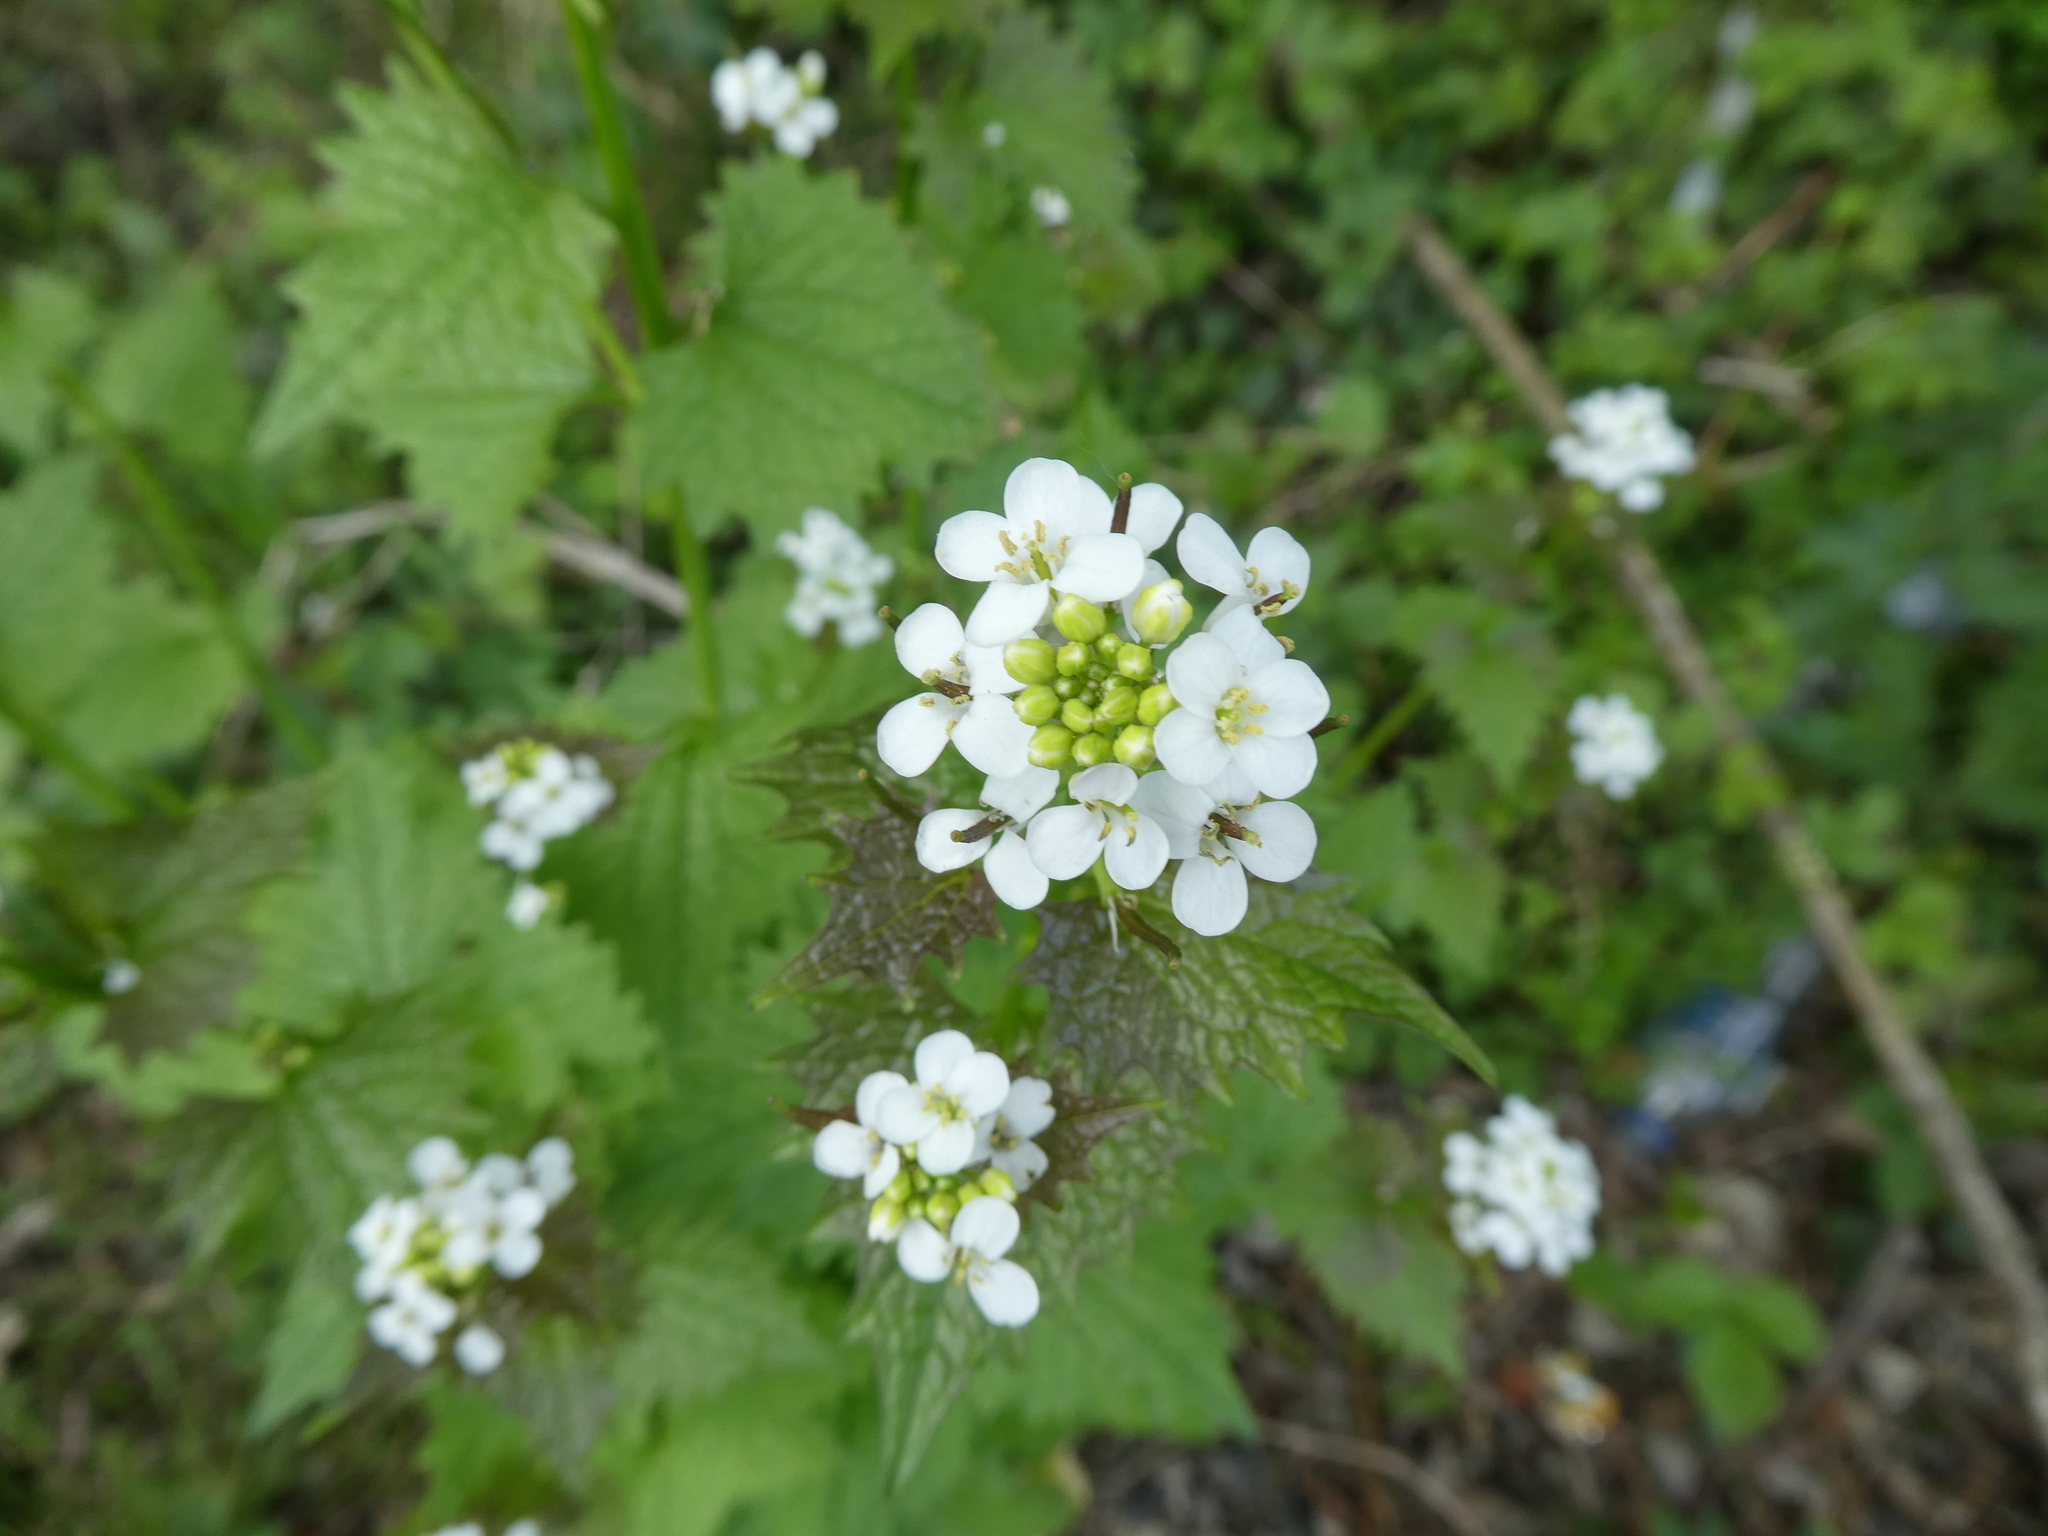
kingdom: Plantae
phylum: Tracheophyta
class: Magnoliopsida
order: Brassicales
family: Brassicaceae
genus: Alliaria
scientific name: Alliaria petiolata
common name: Garlic mustard
